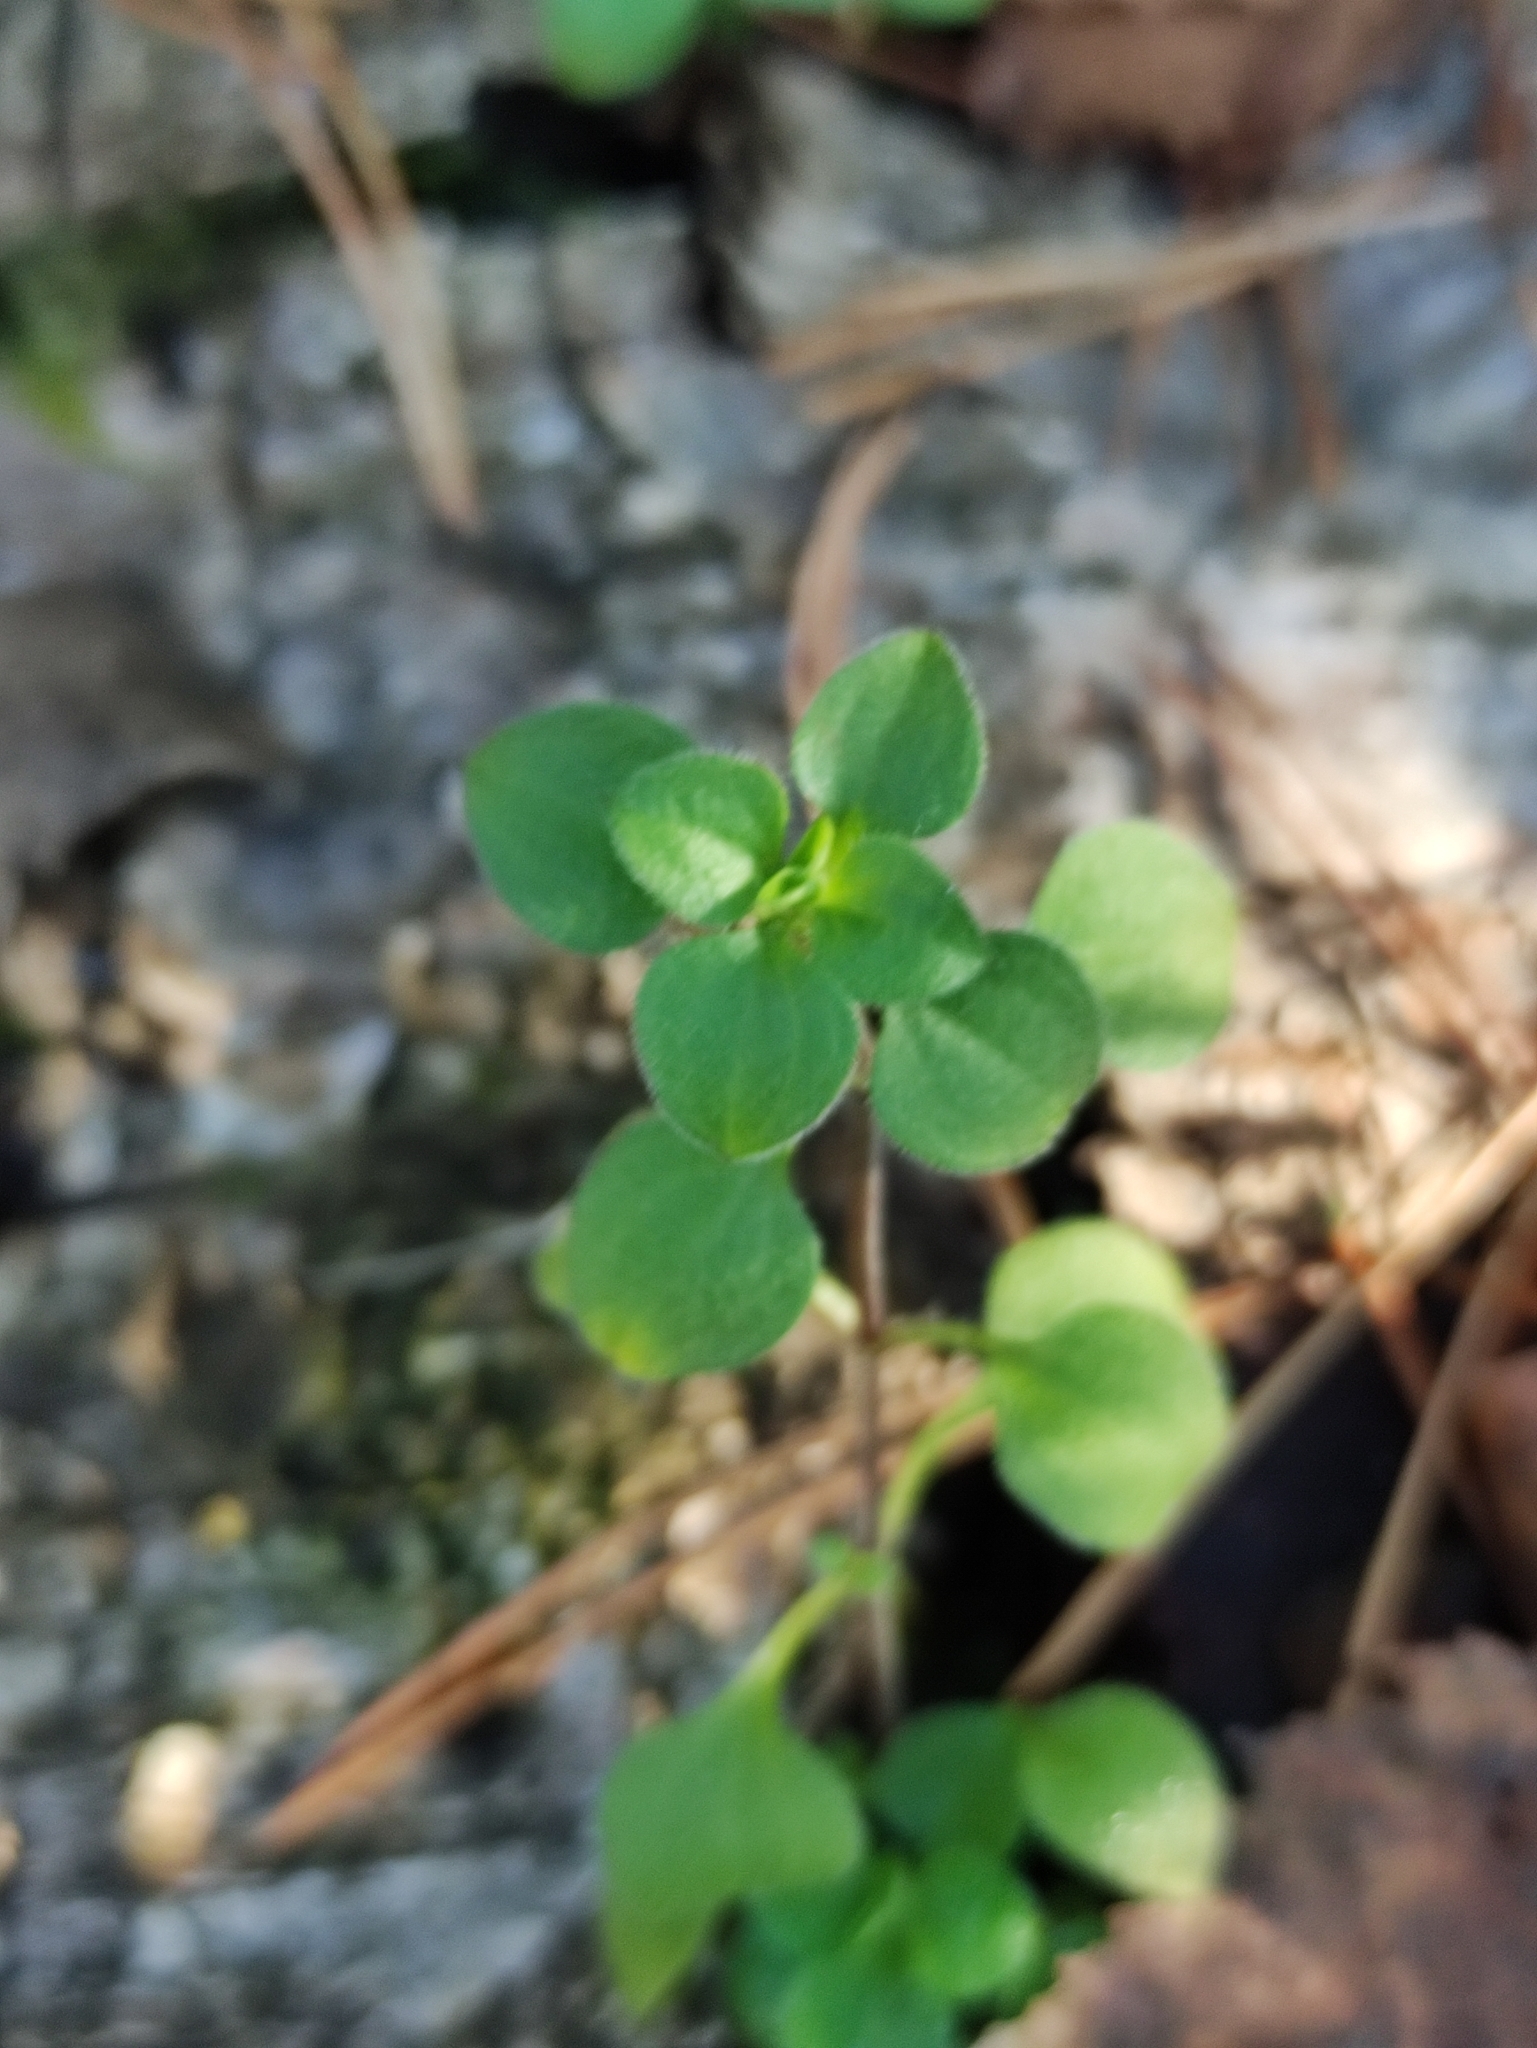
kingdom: Plantae
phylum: Tracheophyta
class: Magnoliopsida
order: Caryophyllales
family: Caryophyllaceae
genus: Moehringia
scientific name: Moehringia trinervia
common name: Three-nerved sandwort
